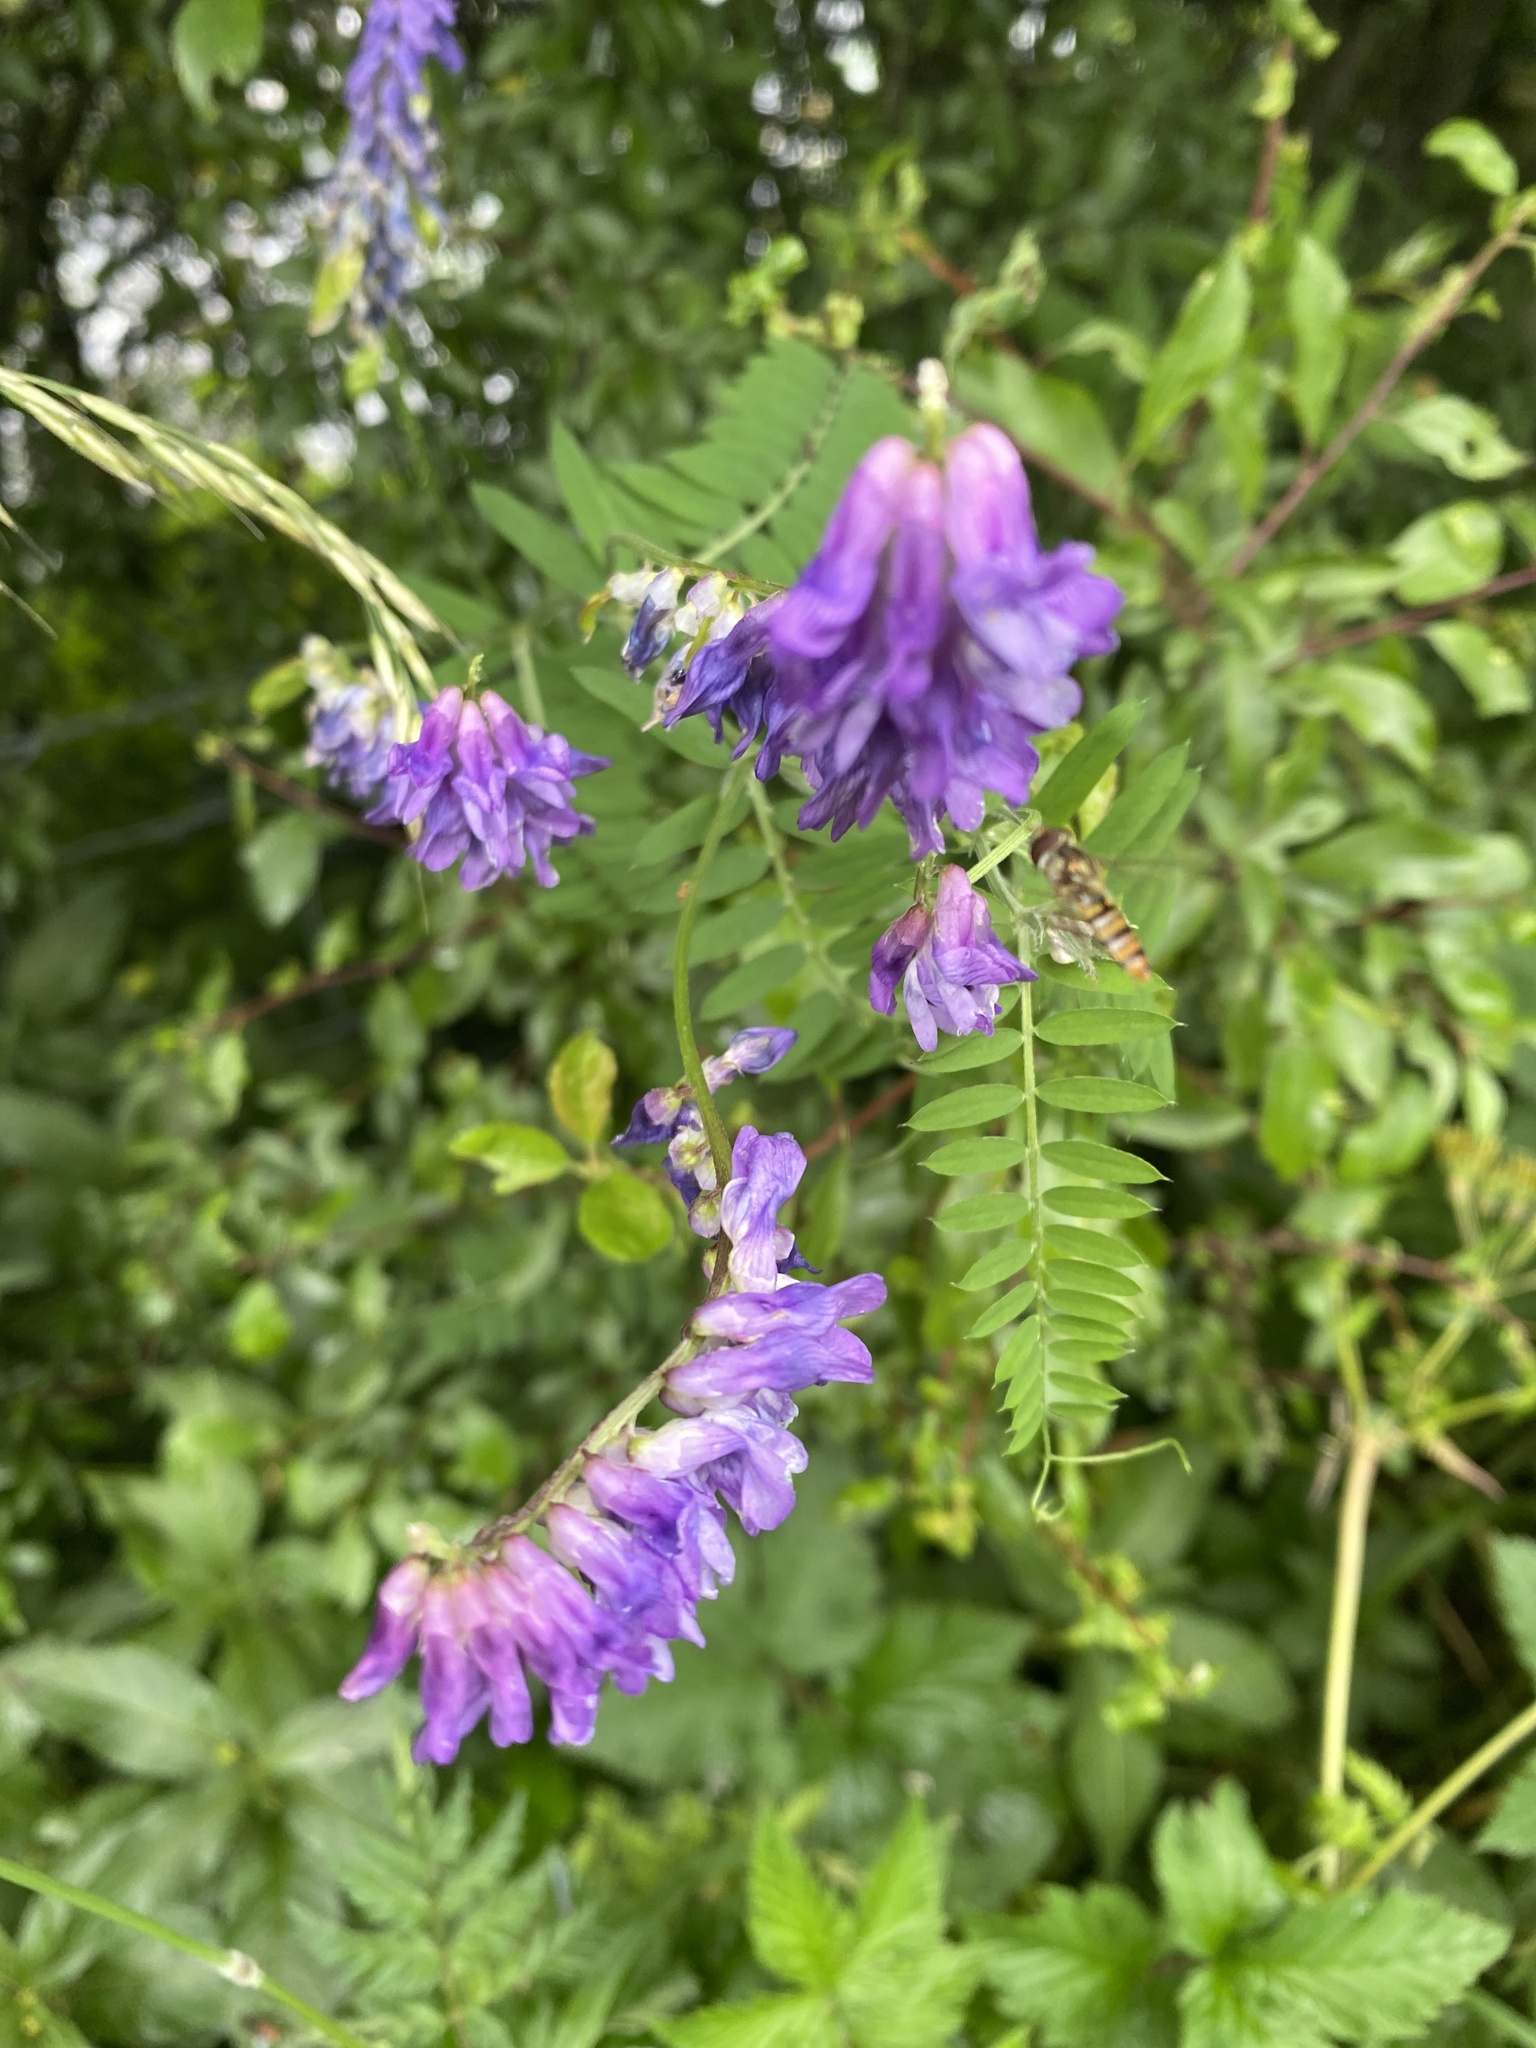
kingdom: Plantae
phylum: Tracheophyta
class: Magnoliopsida
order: Fabales
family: Fabaceae
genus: Vicia
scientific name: Vicia cracca
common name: Bird vetch
